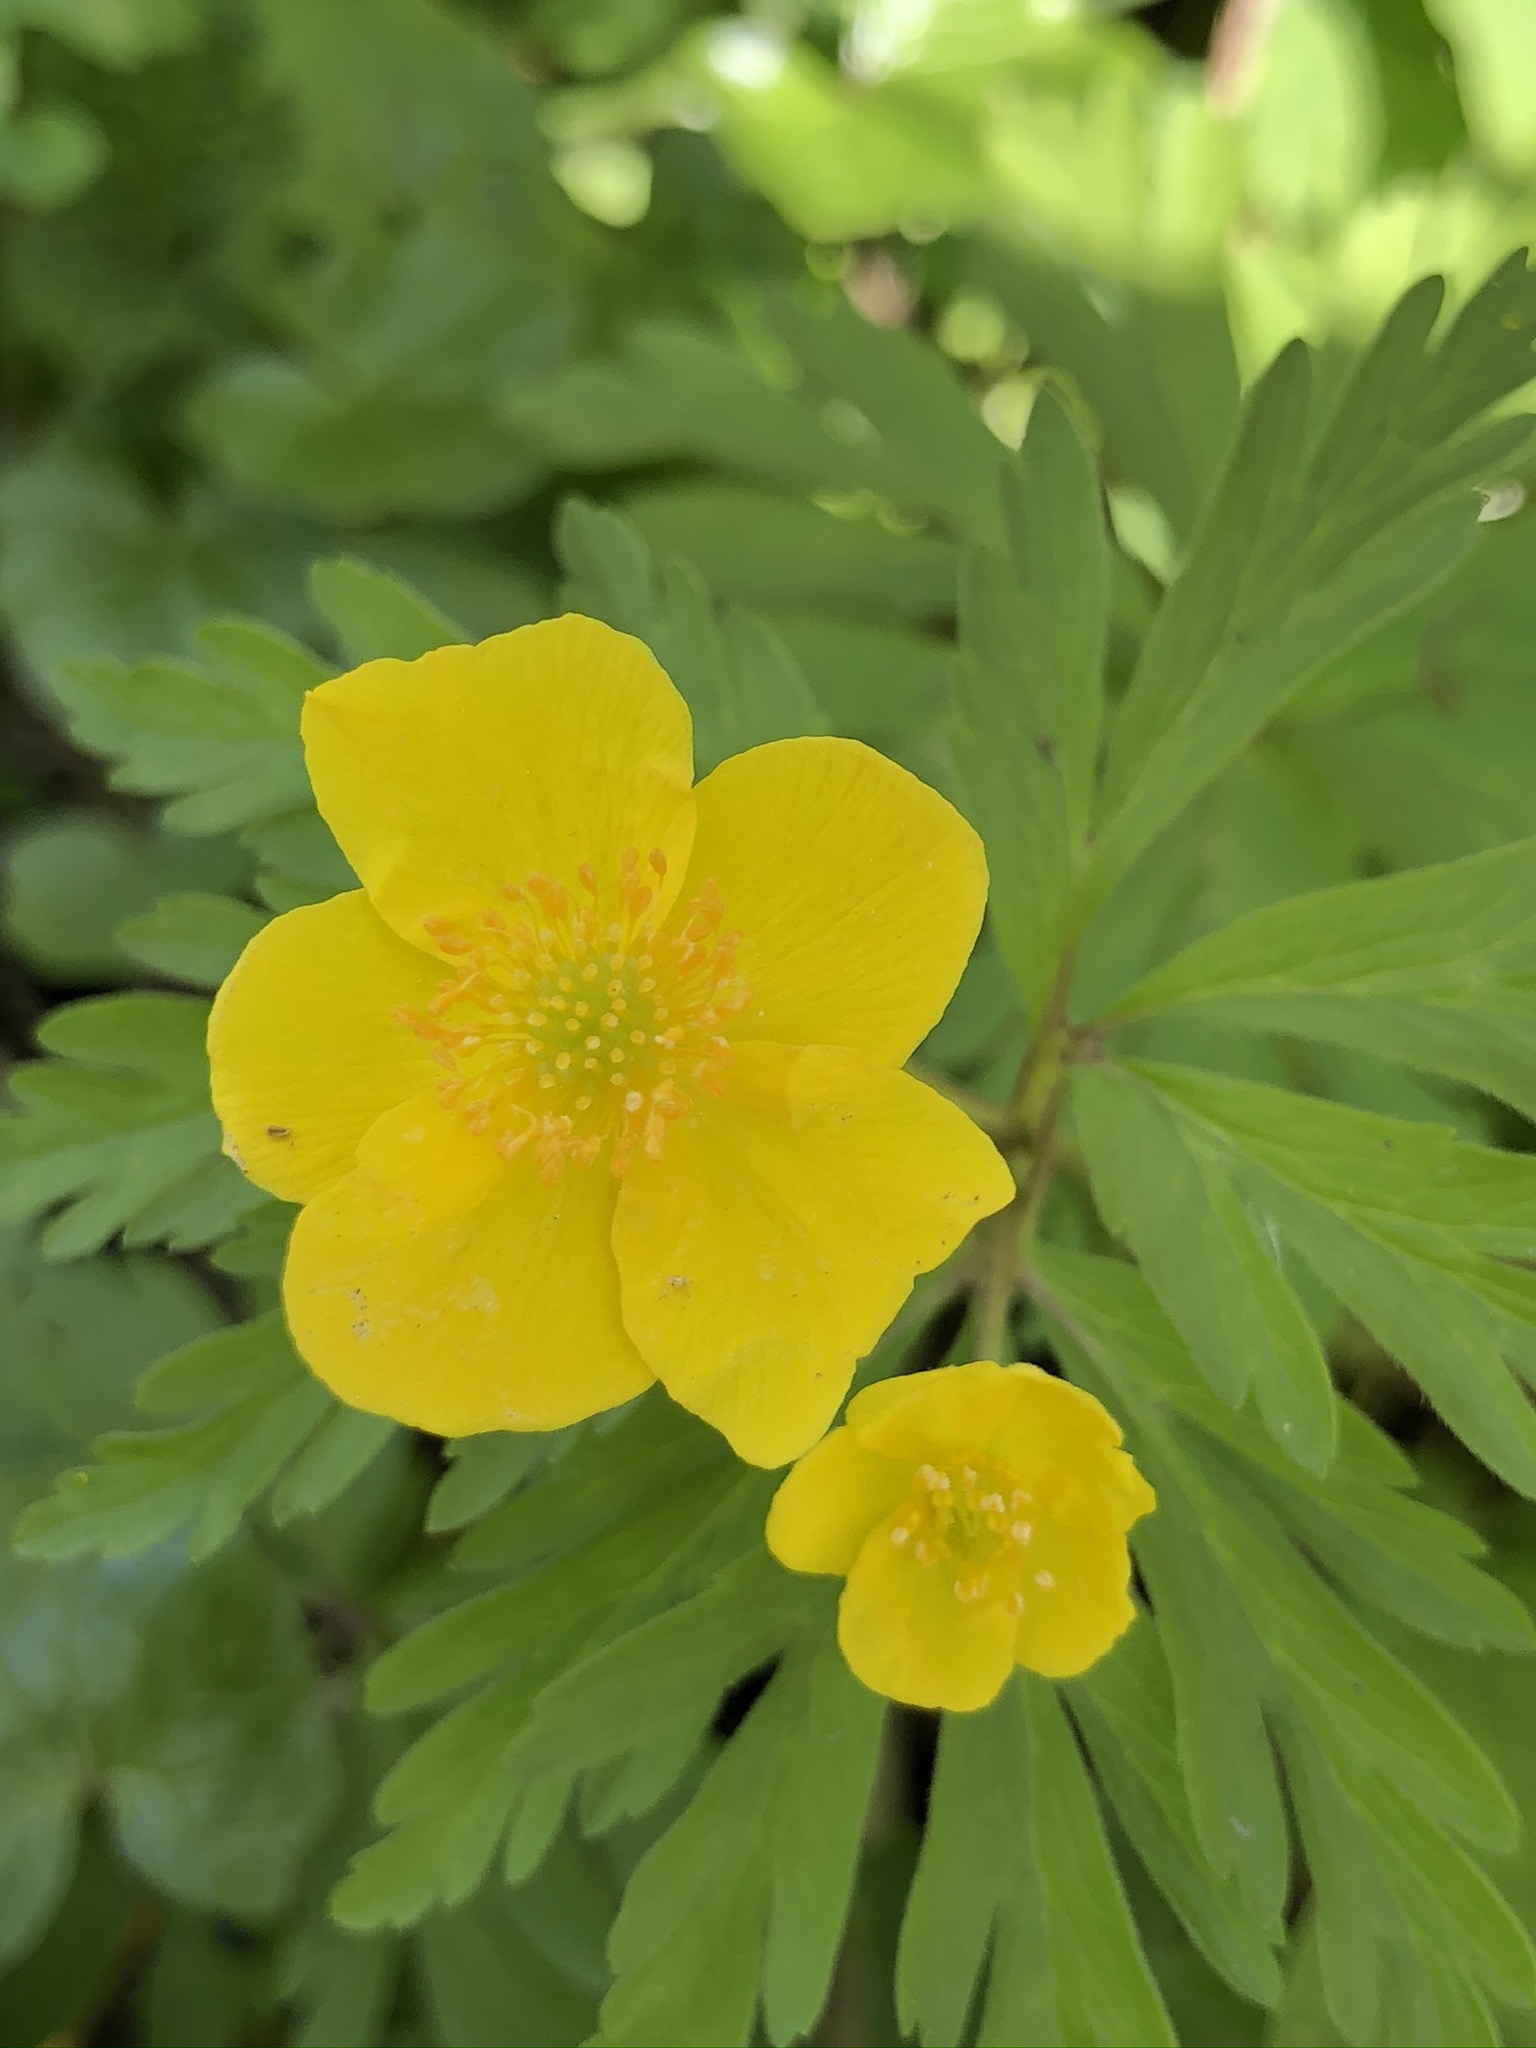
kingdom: Plantae
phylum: Tracheophyta
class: Magnoliopsida
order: Ranunculales
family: Ranunculaceae
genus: Anemone
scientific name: Anemone ranunculoides
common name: Yellow anemone
